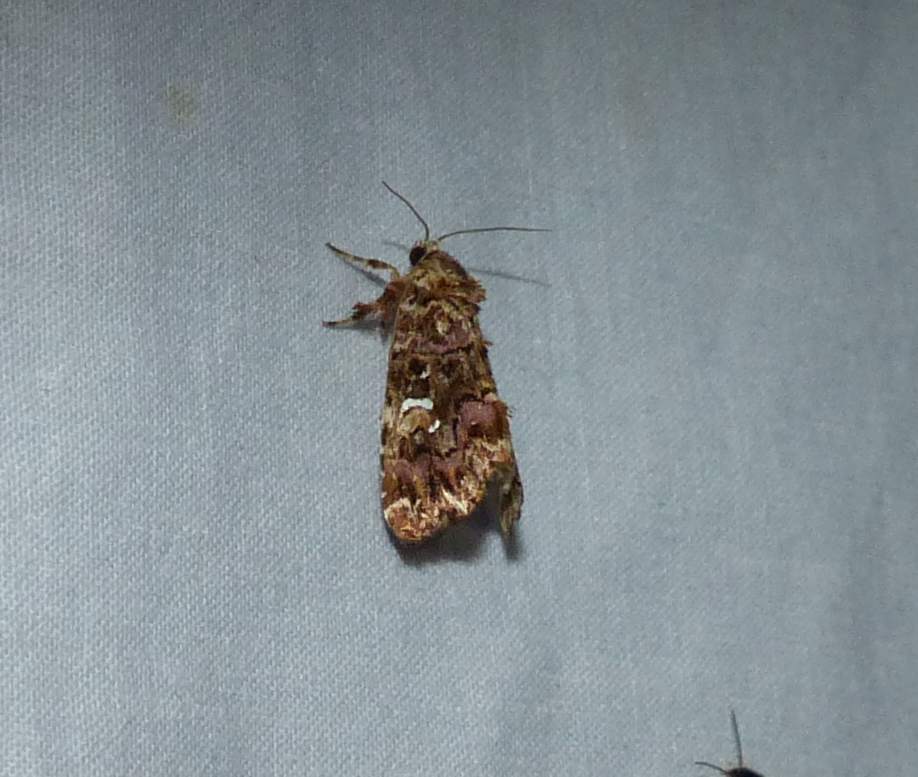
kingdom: Animalia
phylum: Arthropoda
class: Insecta
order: Lepidoptera
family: Noctuidae
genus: Callopistria
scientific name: Callopistria mollissima
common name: Pink-shaded fern moth
